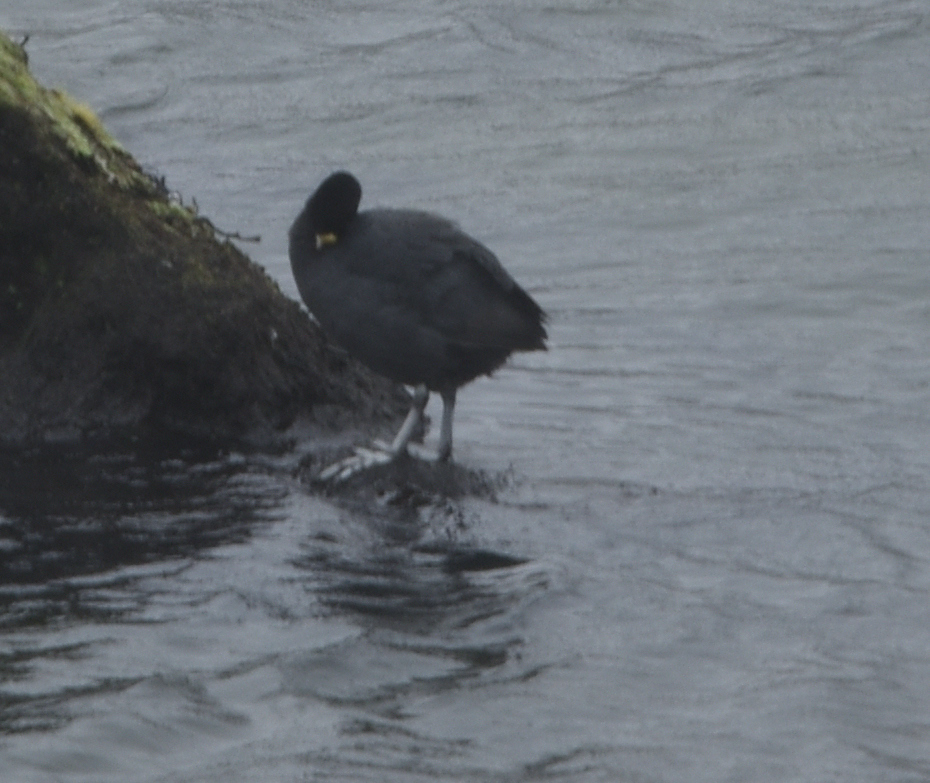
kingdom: Animalia
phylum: Chordata
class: Aves
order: Gruiformes
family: Rallidae
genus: Fulica
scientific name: Fulica ardesiaca
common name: Andean coot
